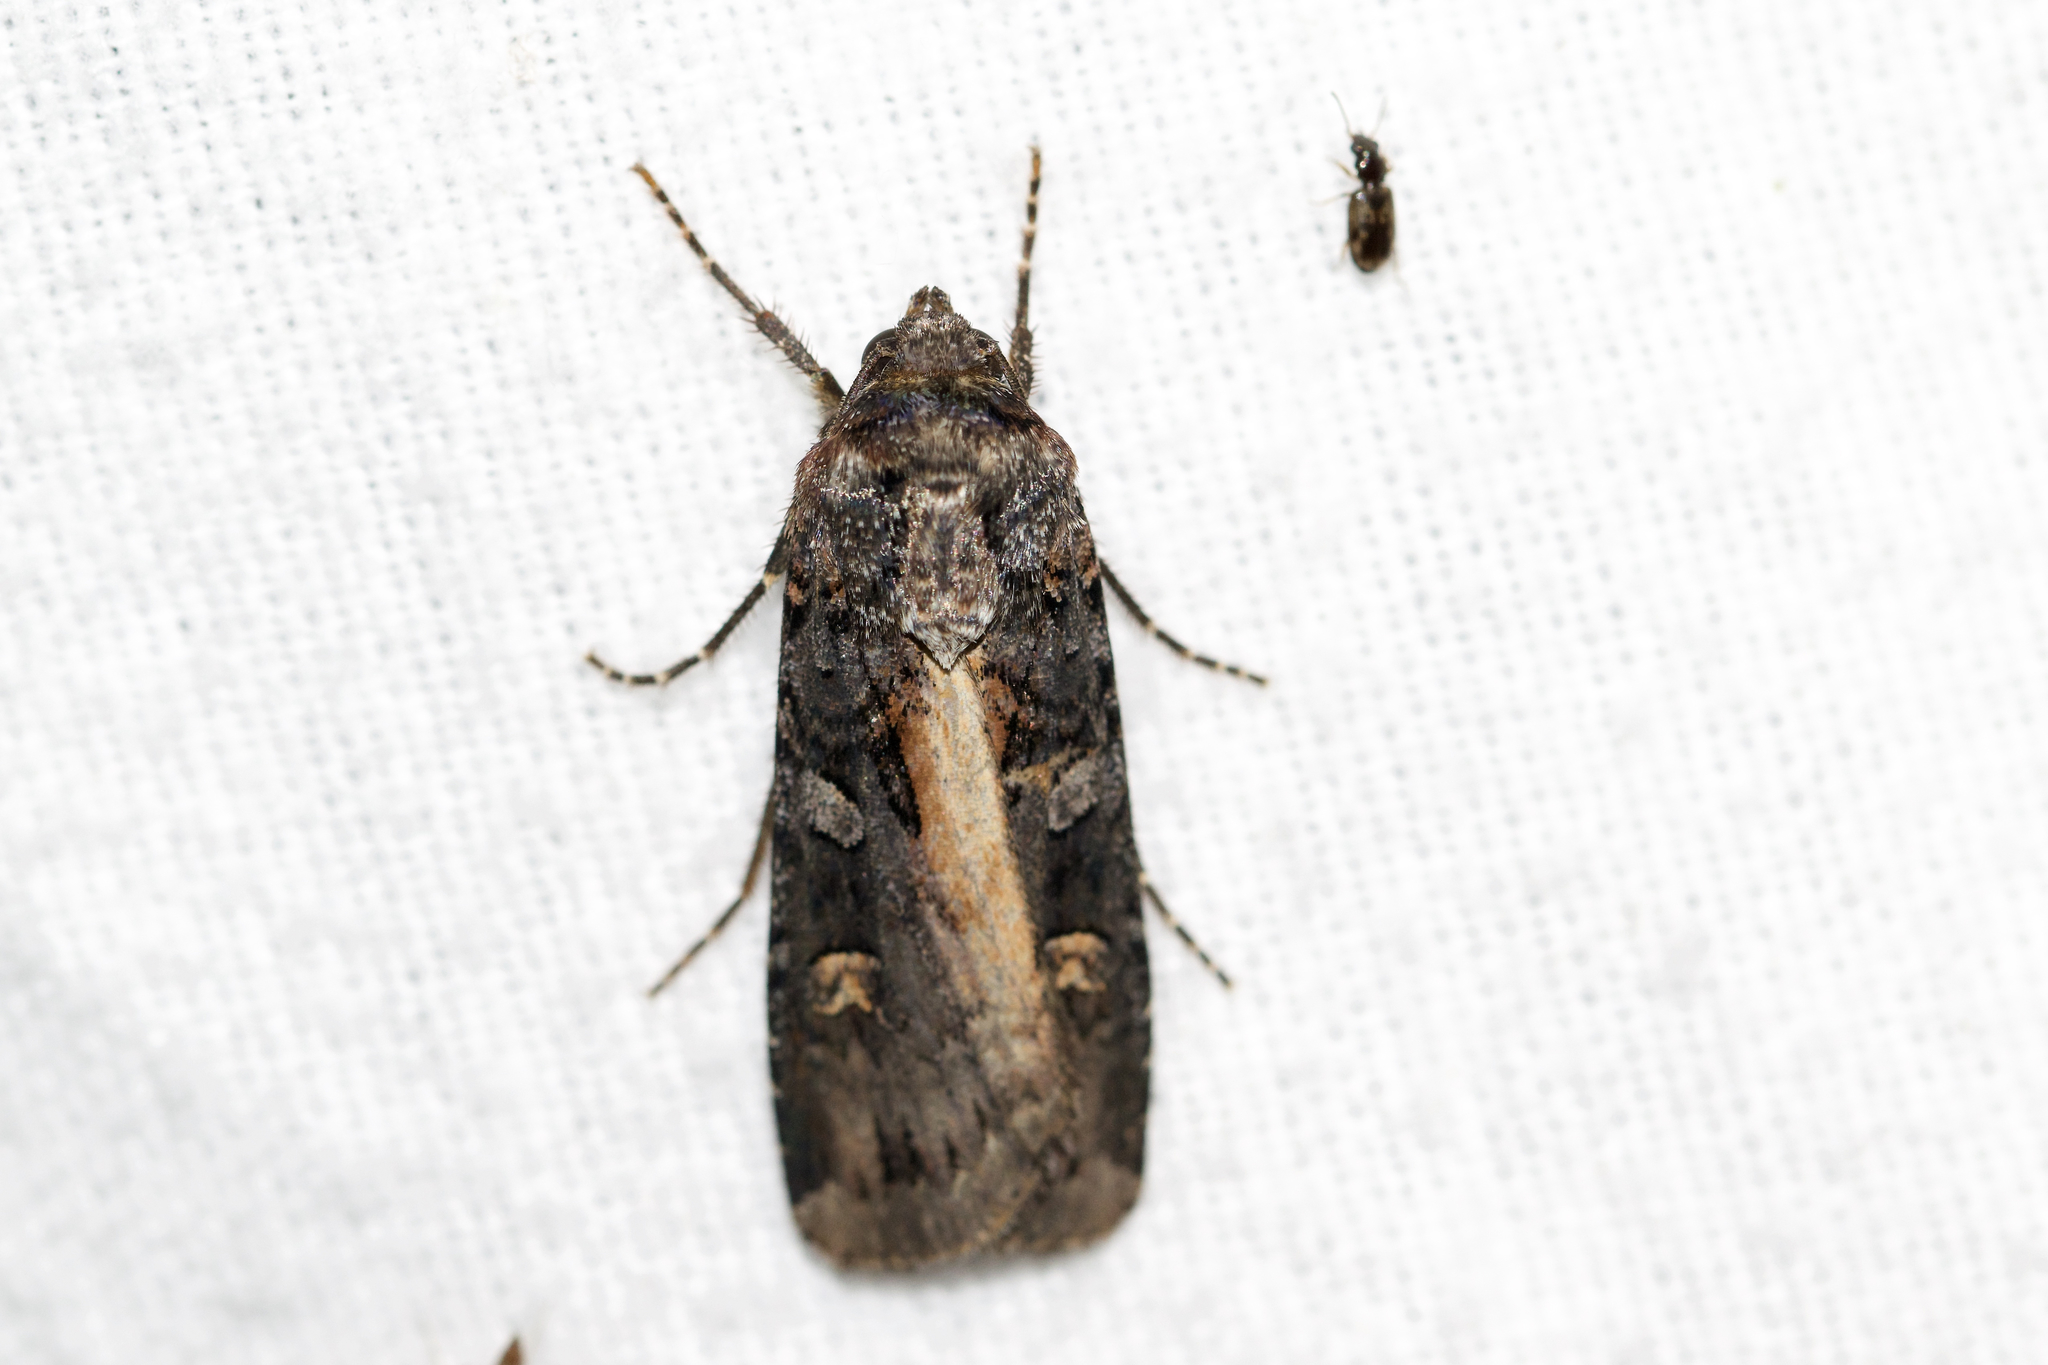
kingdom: Animalia
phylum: Arthropoda
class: Insecta
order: Lepidoptera
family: Noctuidae
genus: Actebia
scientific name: Actebia fennica
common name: Eversmann's rustic
